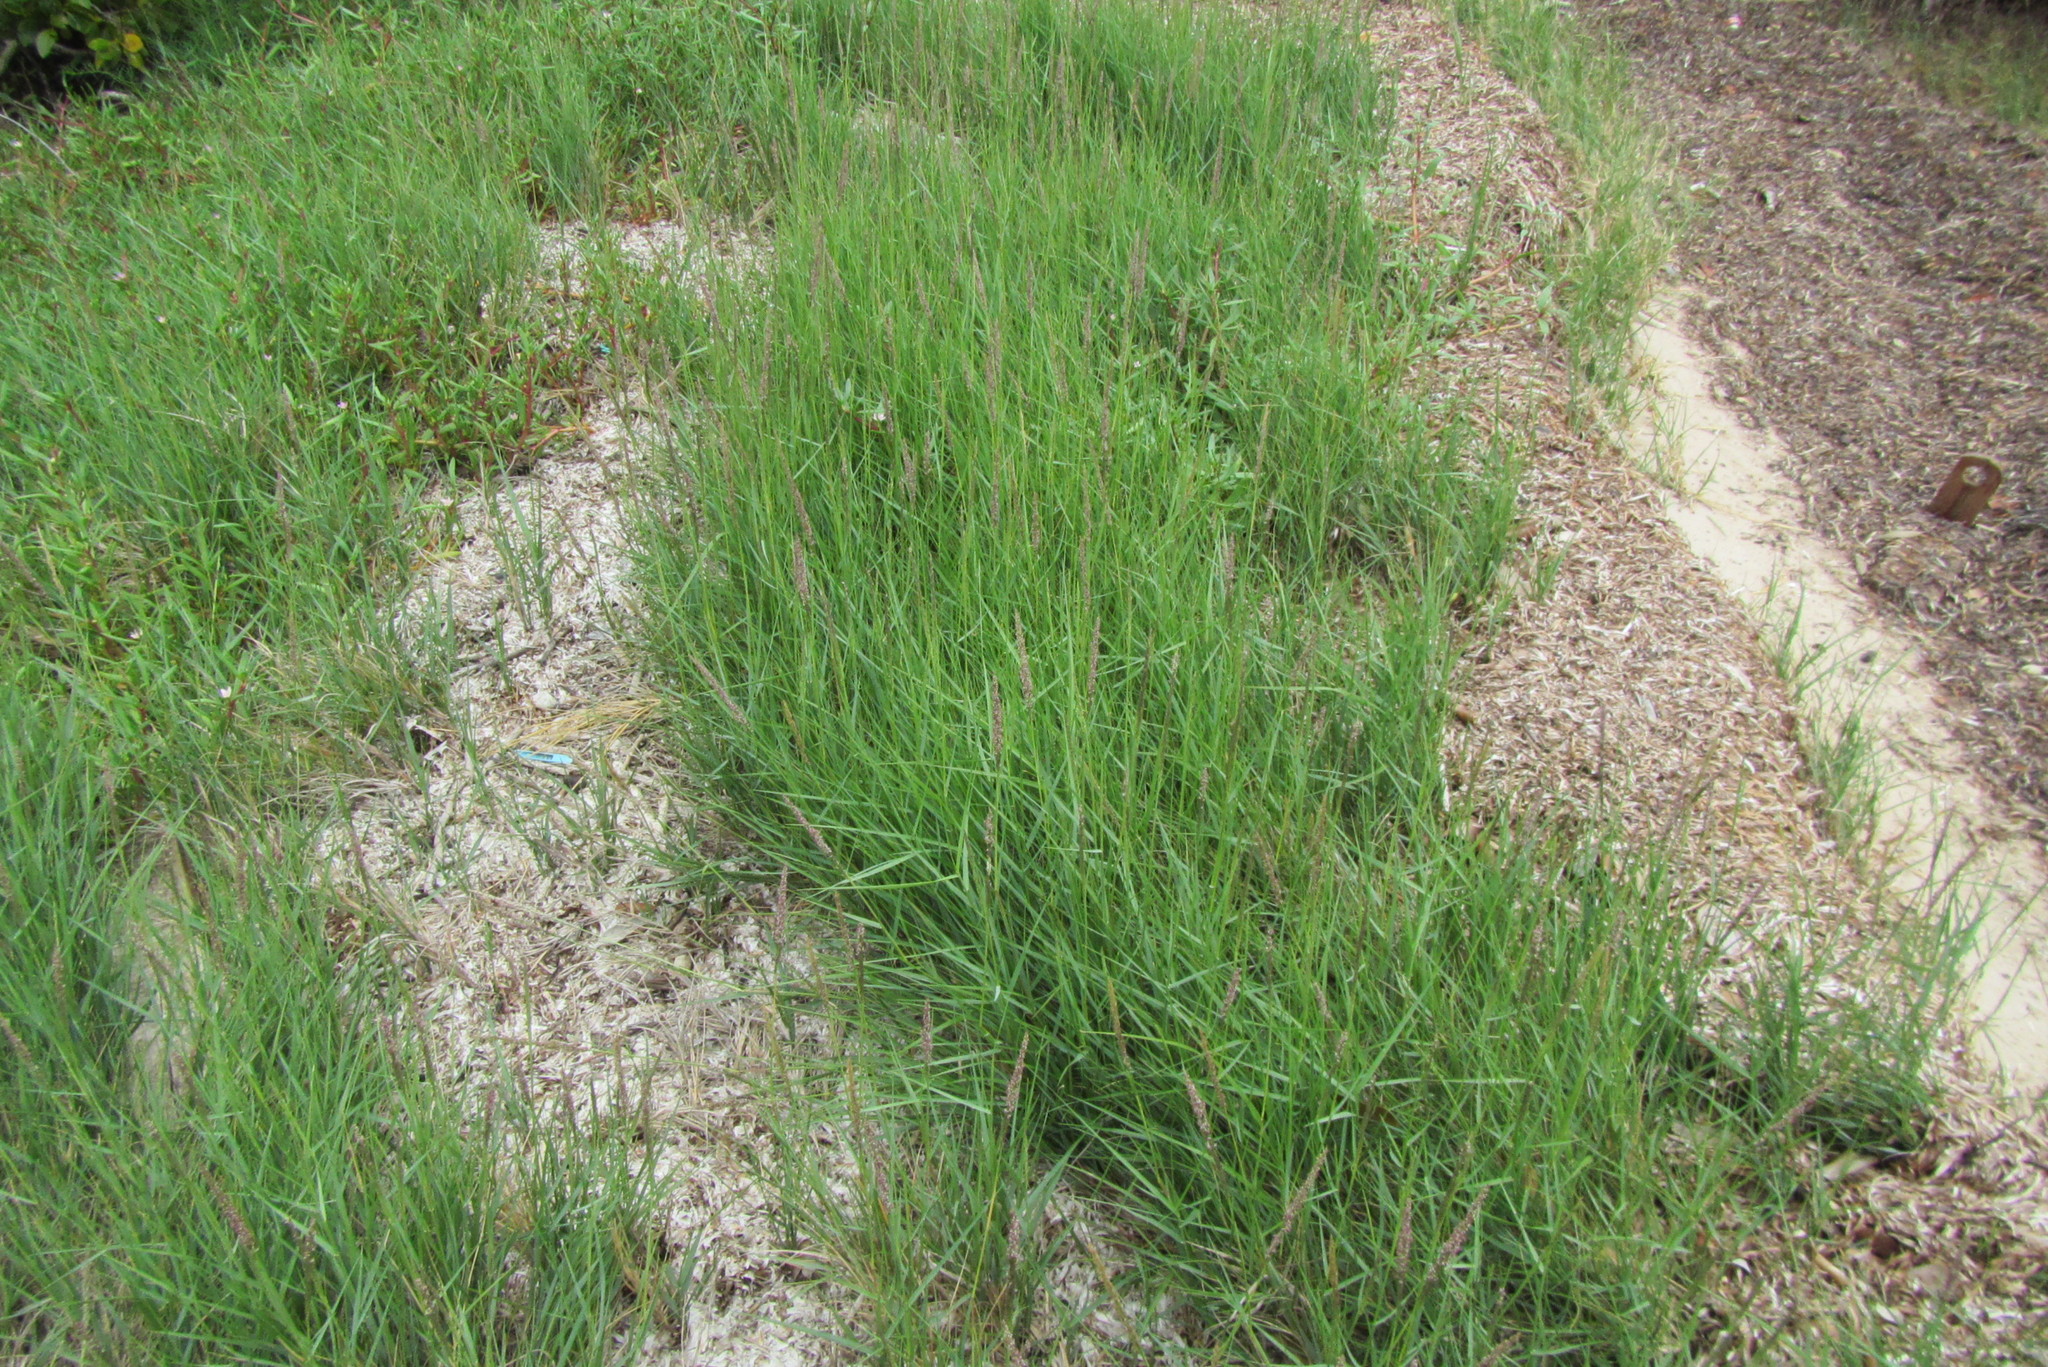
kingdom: Plantae
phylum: Tracheophyta
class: Liliopsida
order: Poales
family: Poaceae
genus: Sporobolus
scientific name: Sporobolus virginicus
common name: Beach dropseed
